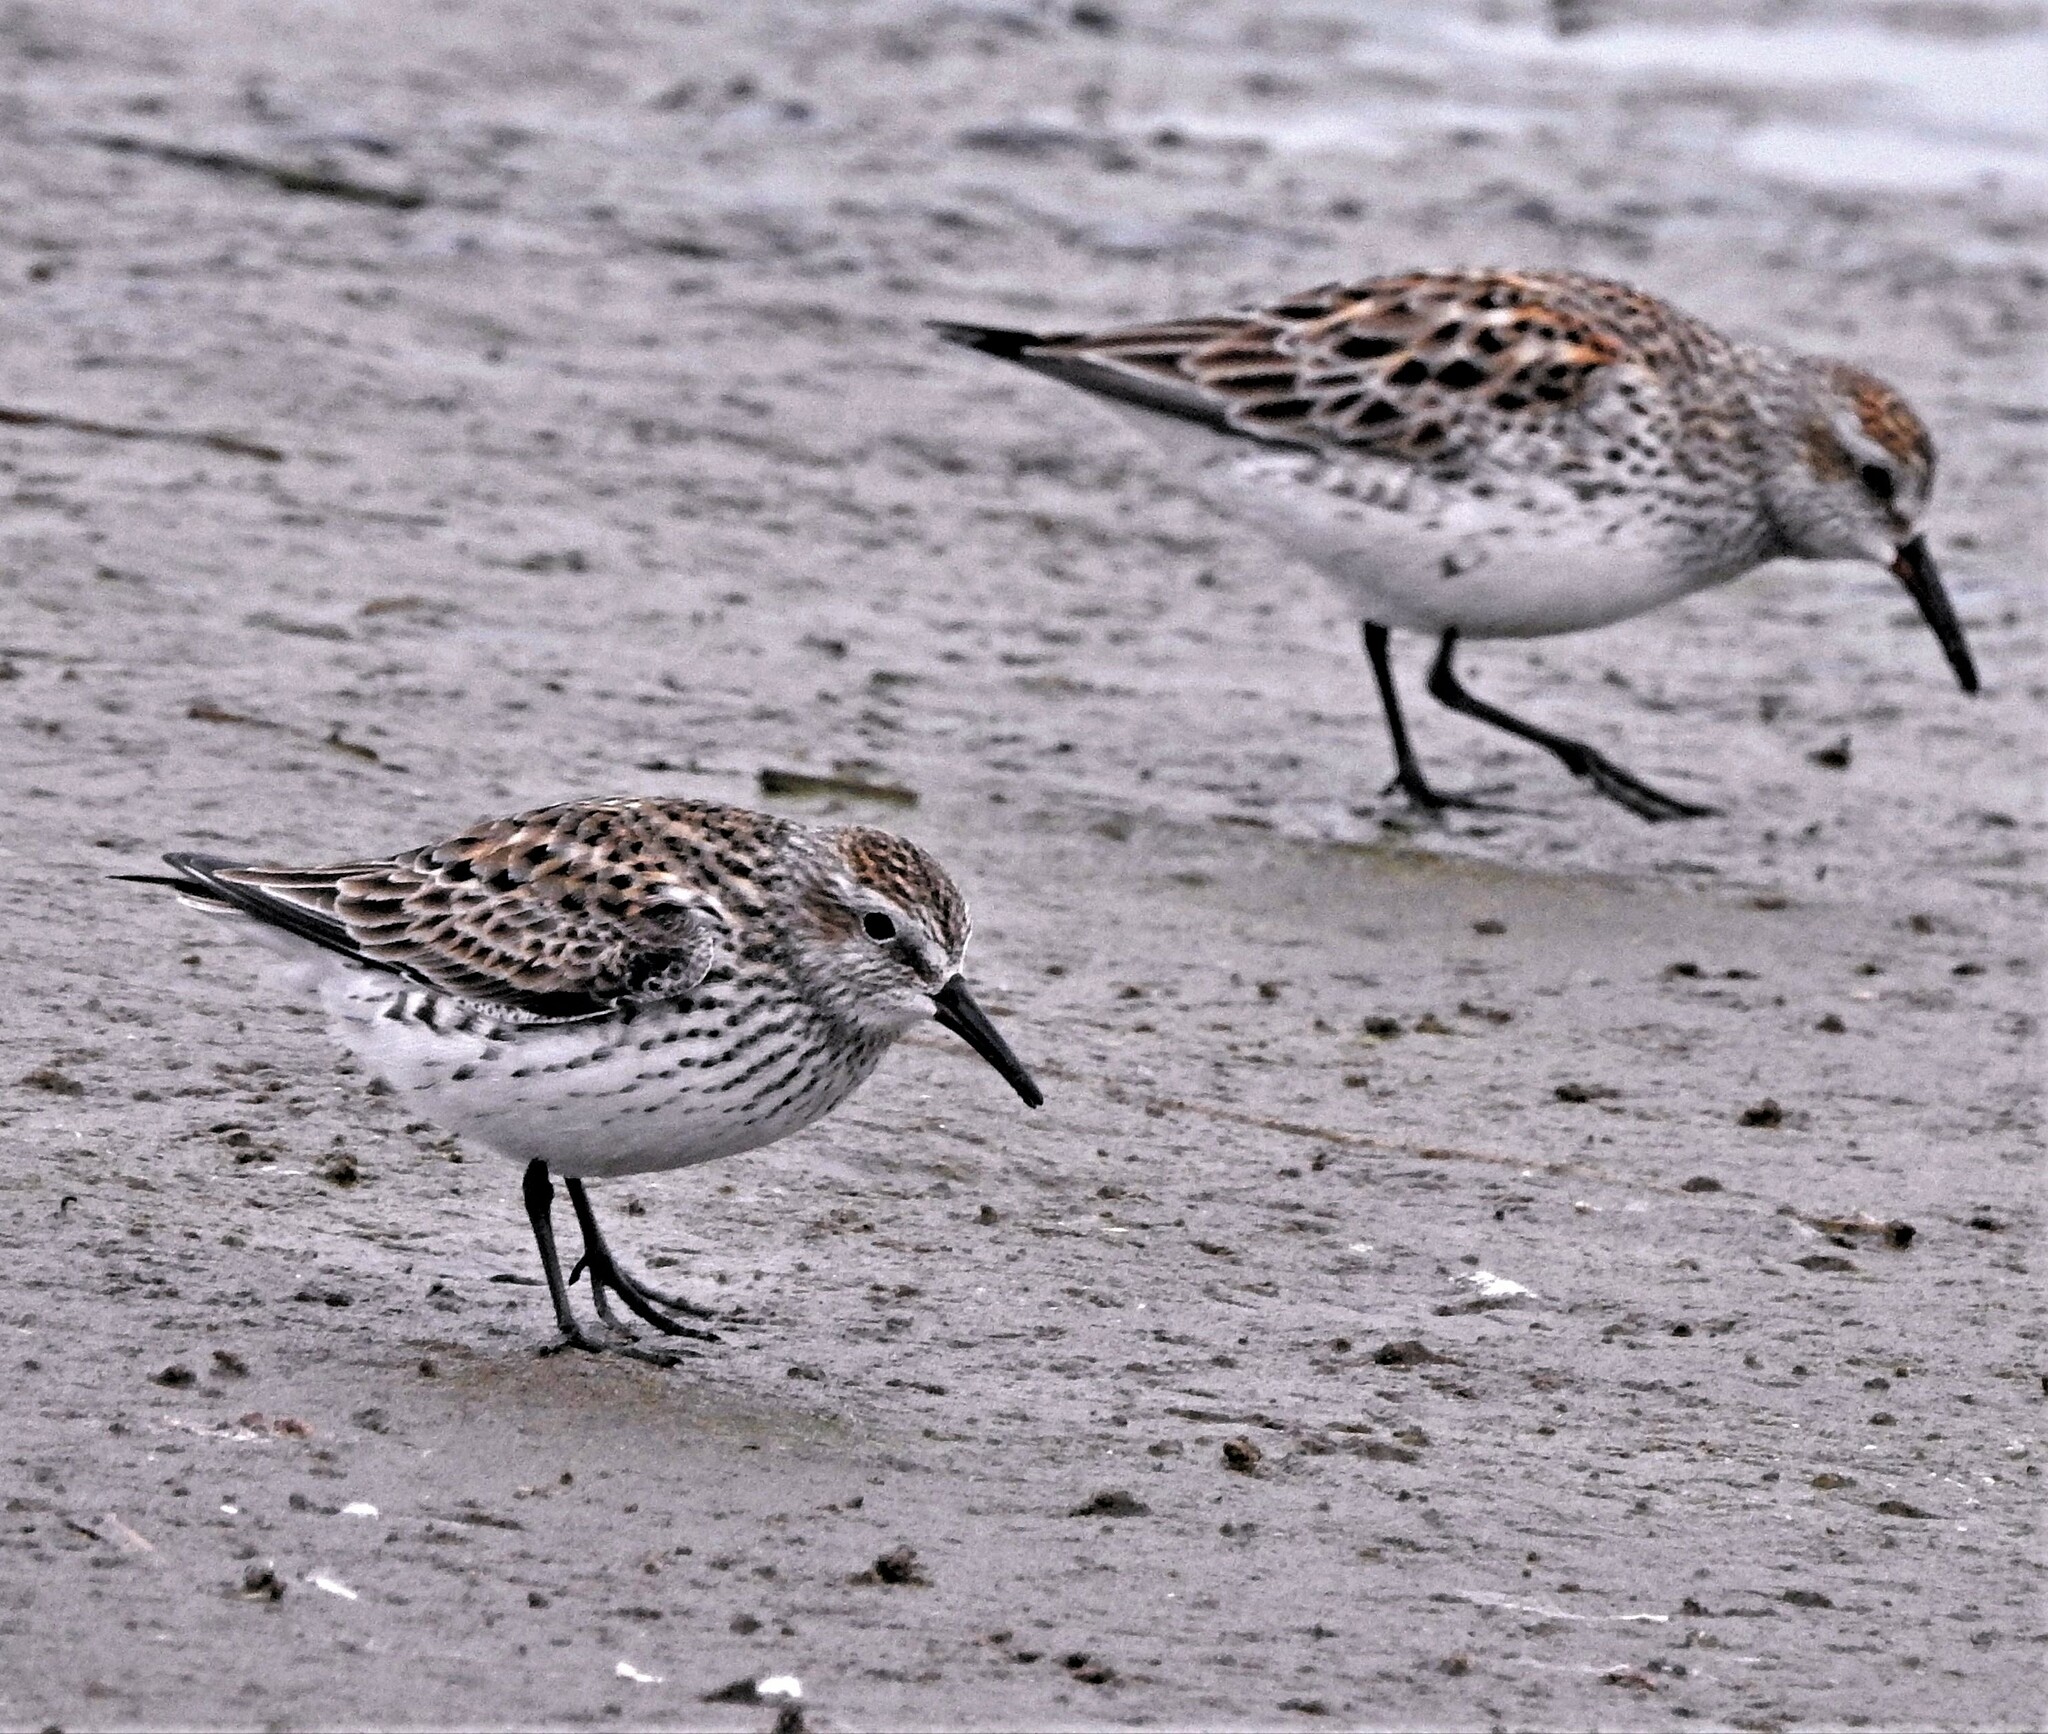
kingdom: Animalia
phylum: Chordata
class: Aves
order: Charadriiformes
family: Scolopacidae
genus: Calidris
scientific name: Calidris fuscicollis
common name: White-rumped sandpiper
